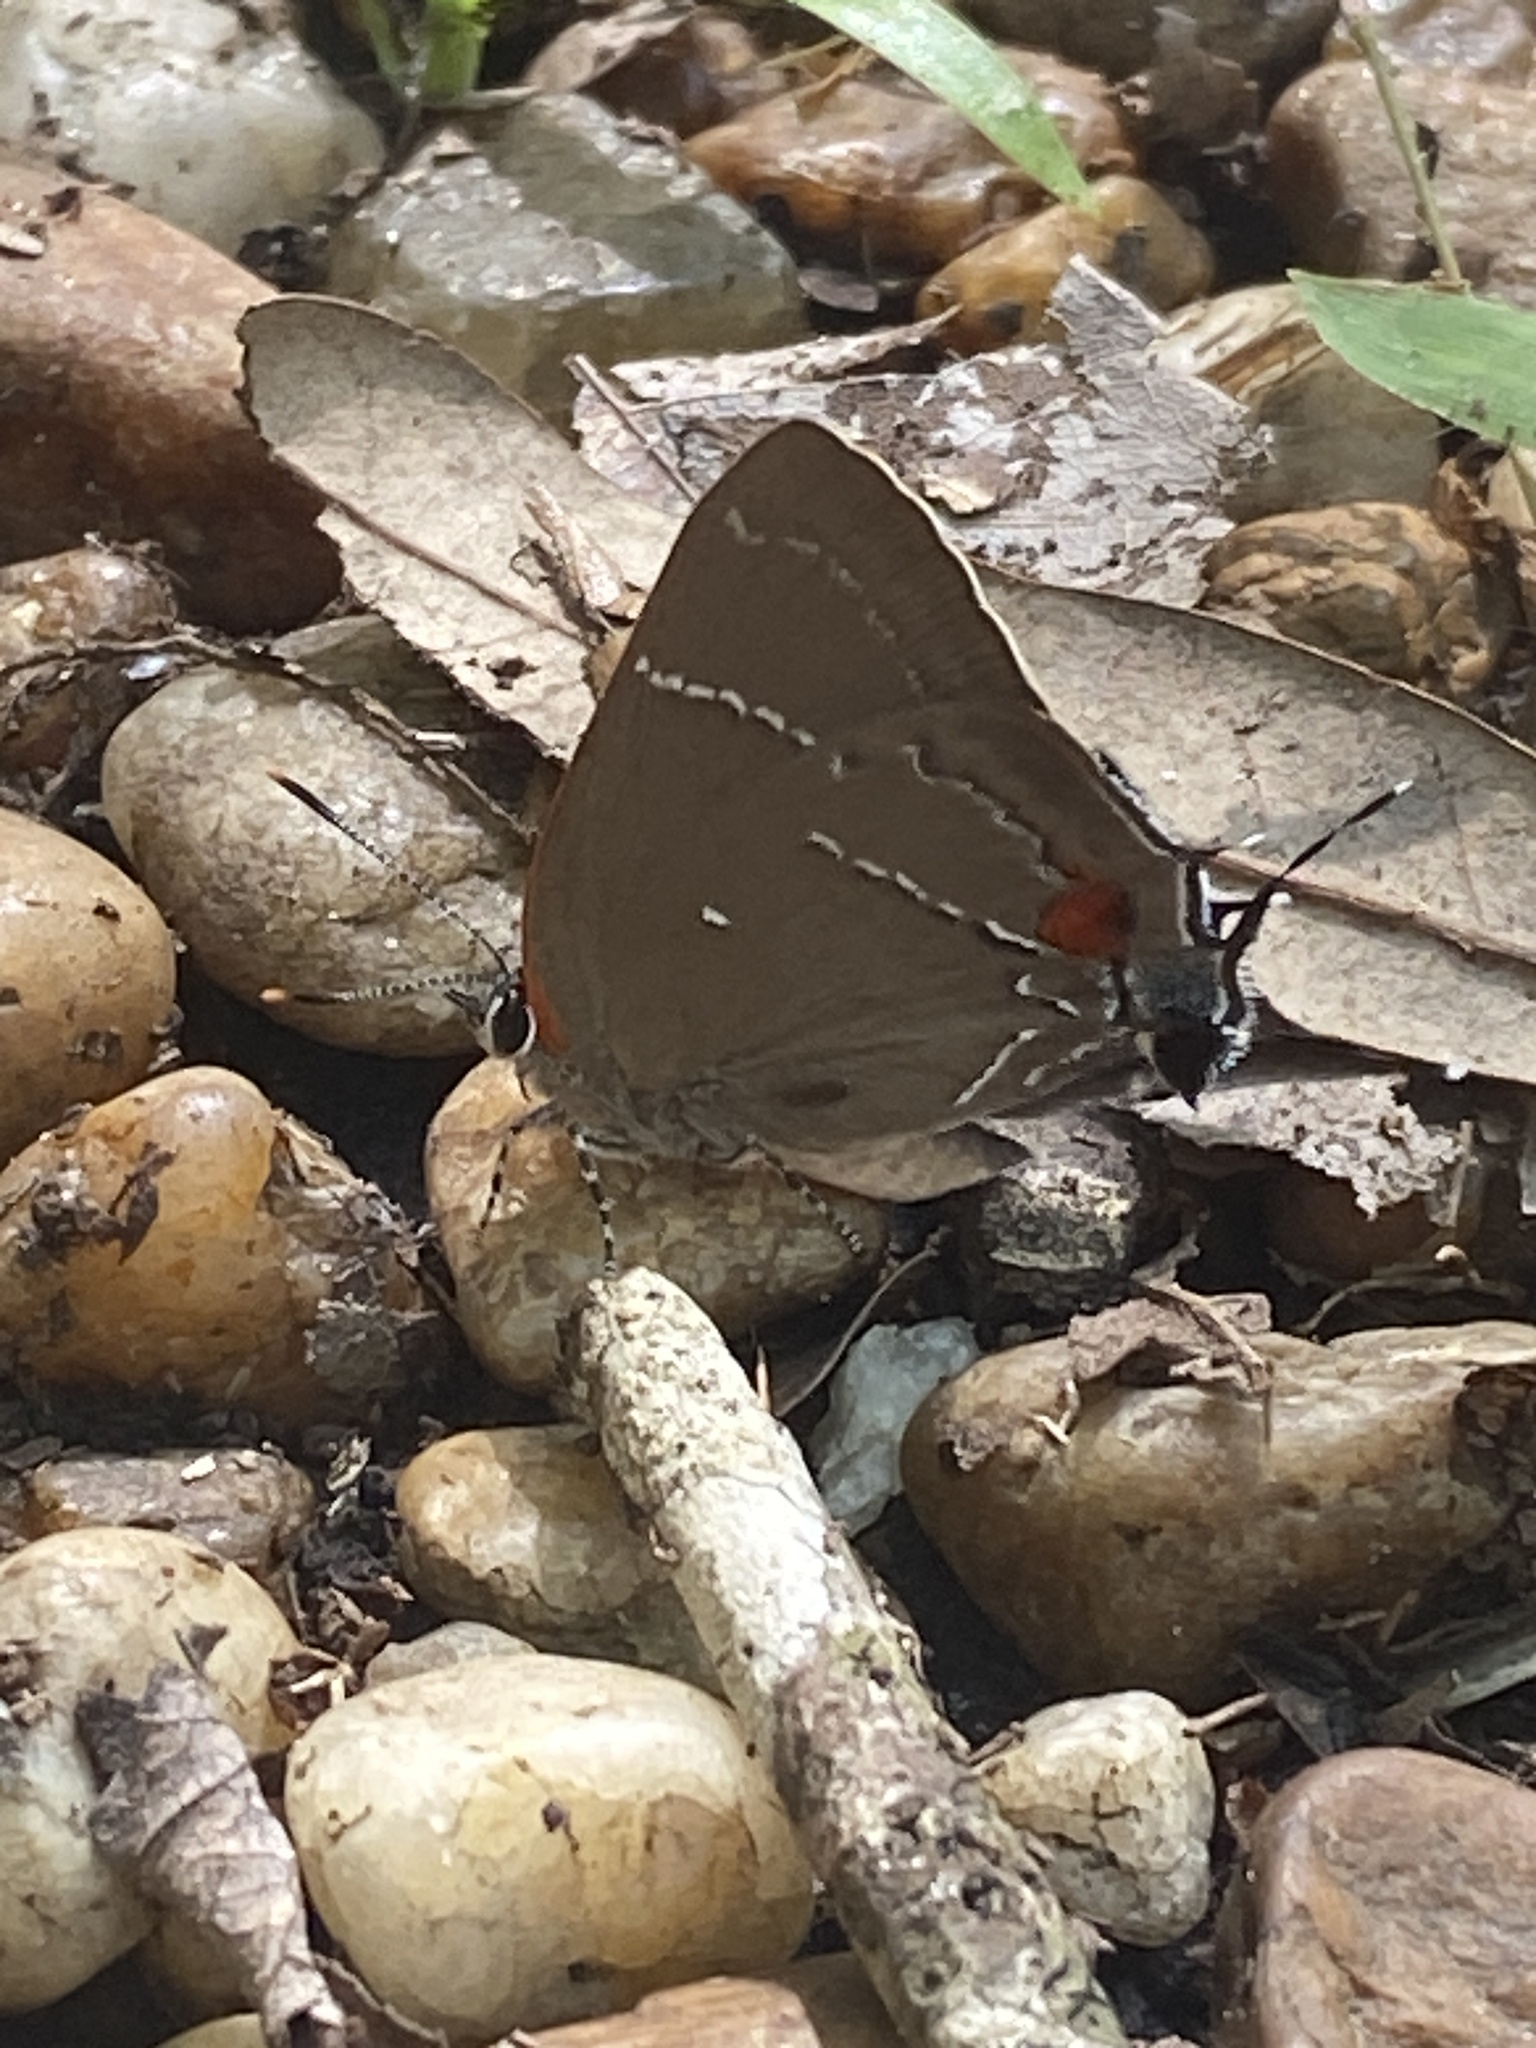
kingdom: Animalia
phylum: Arthropoda
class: Insecta
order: Lepidoptera
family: Lycaenidae
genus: Parrhasius
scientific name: Parrhasius m-album
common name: White m hairstreak
